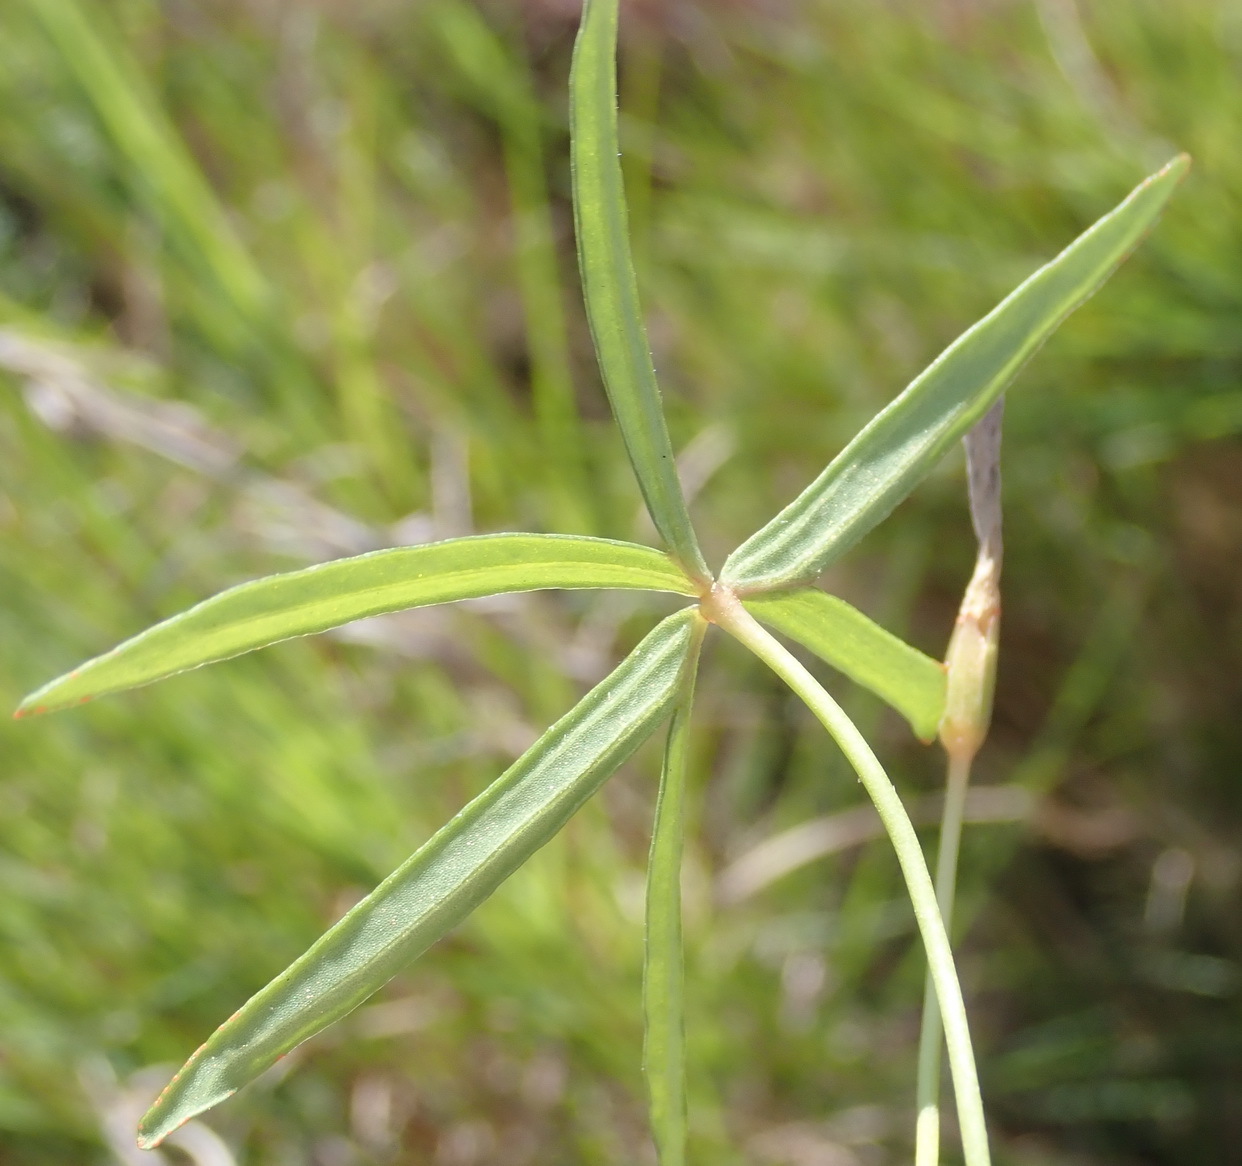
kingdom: Plantae
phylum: Tracheophyta
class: Magnoliopsida
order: Oxalidales
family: Oxalidaceae
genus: Oxalis
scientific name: Oxalis smithiana
